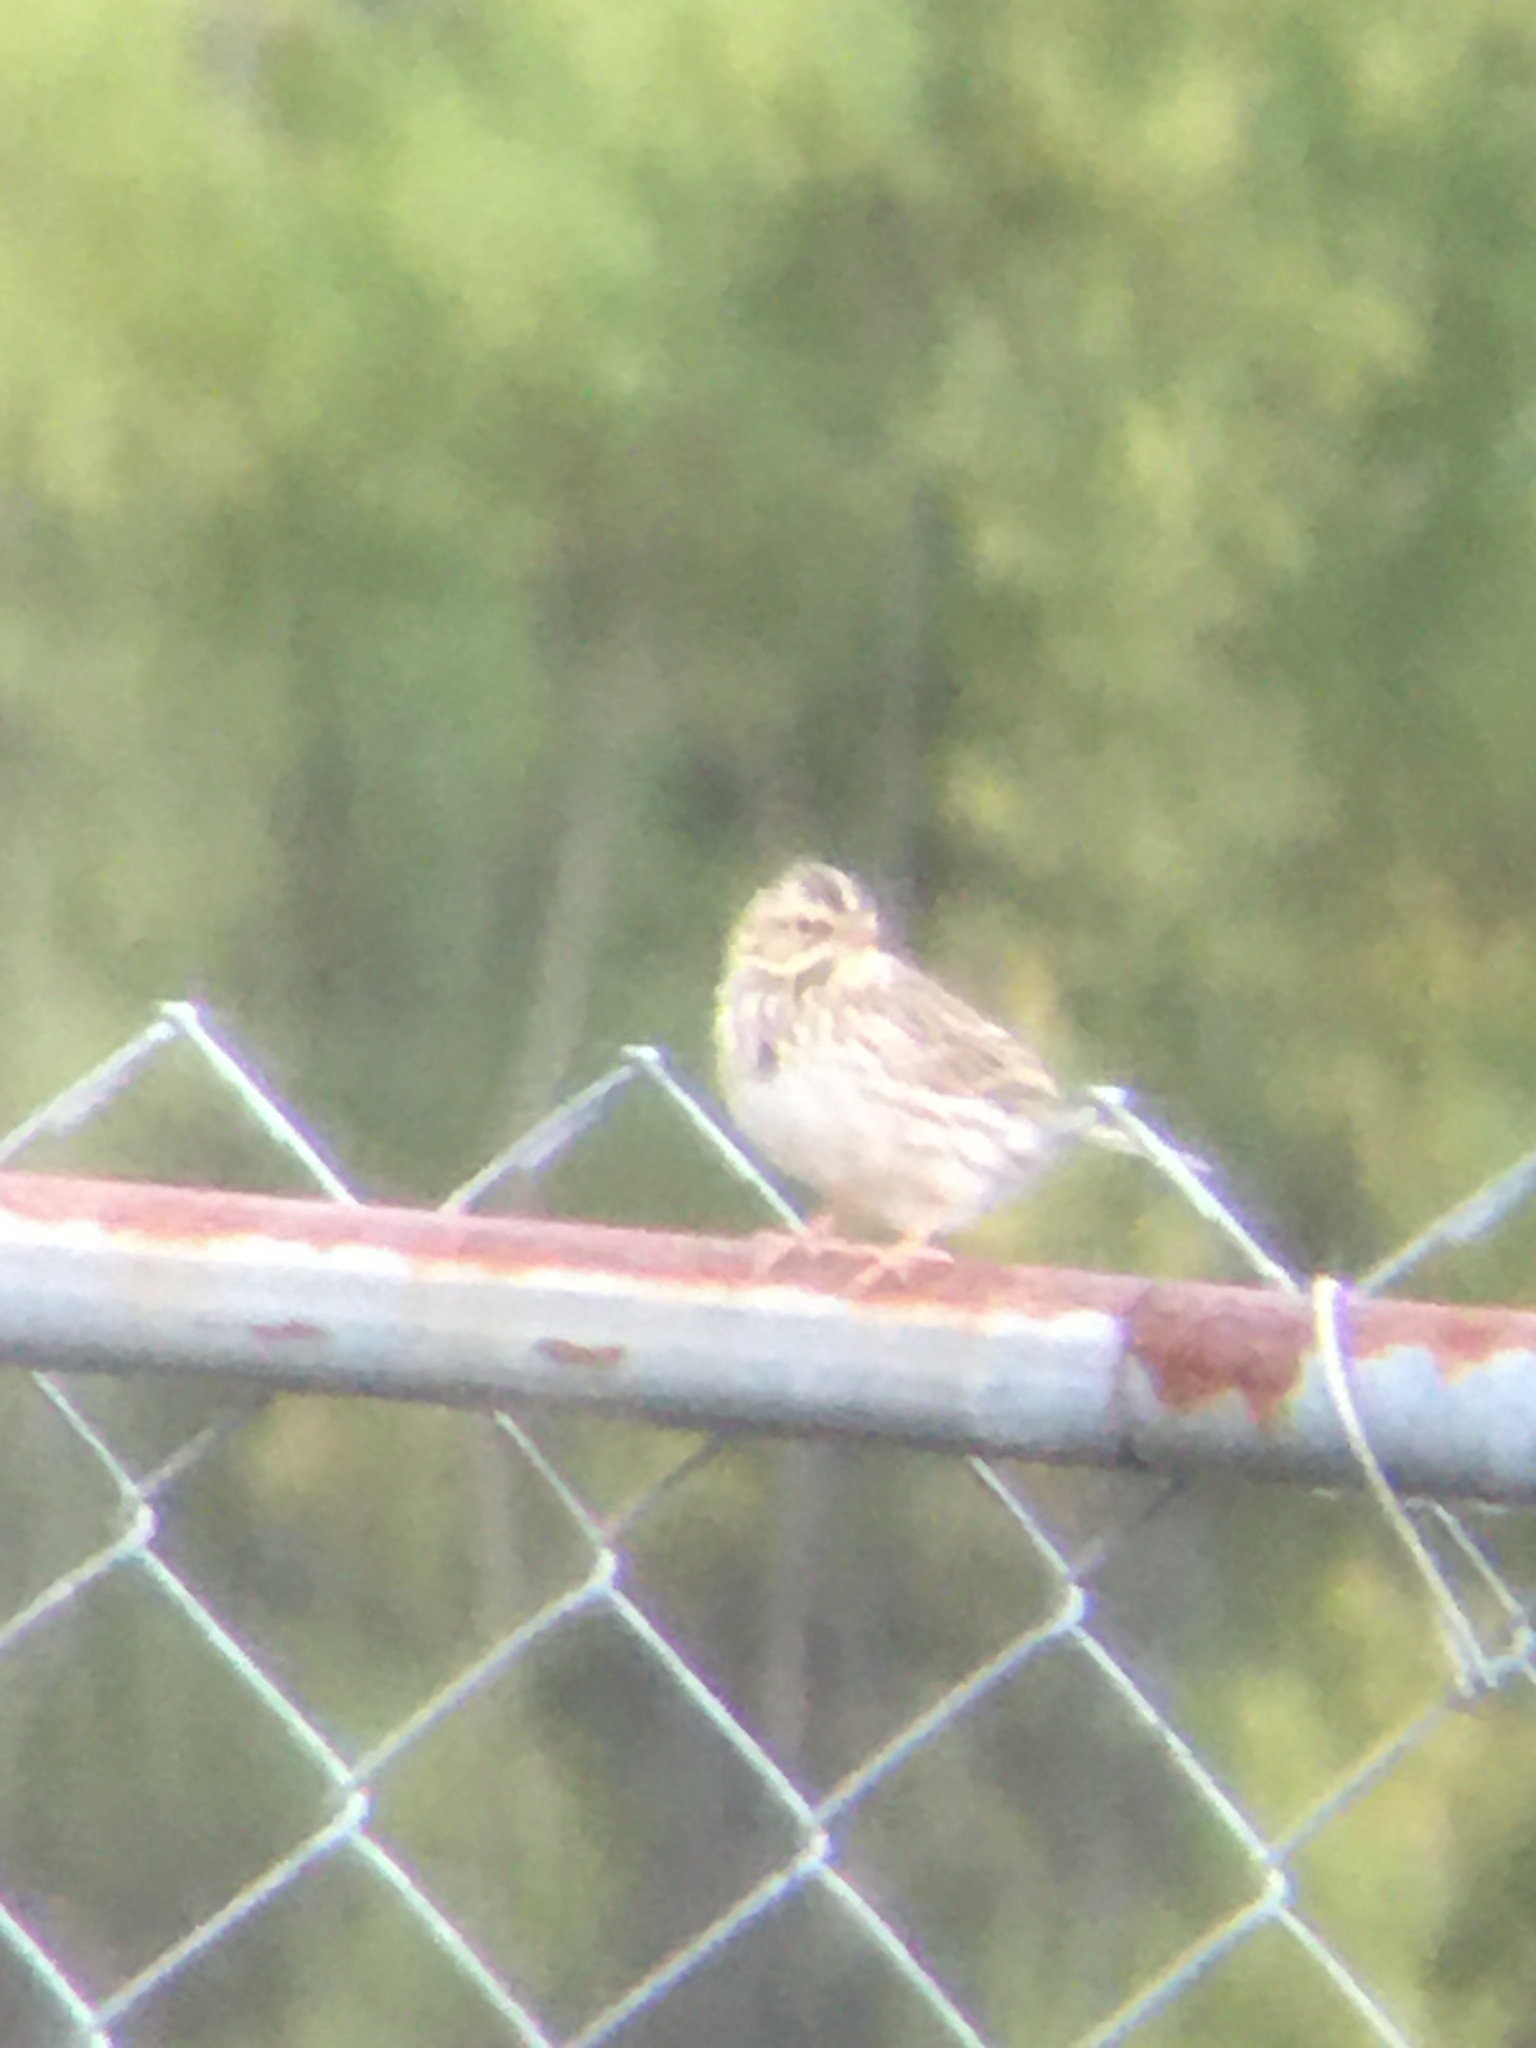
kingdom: Animalia
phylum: Chordata
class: Aves
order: Passeriformes
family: Passerellidae
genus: Passerculus
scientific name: Passerculus sandwichensis
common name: Savannah sparrow
